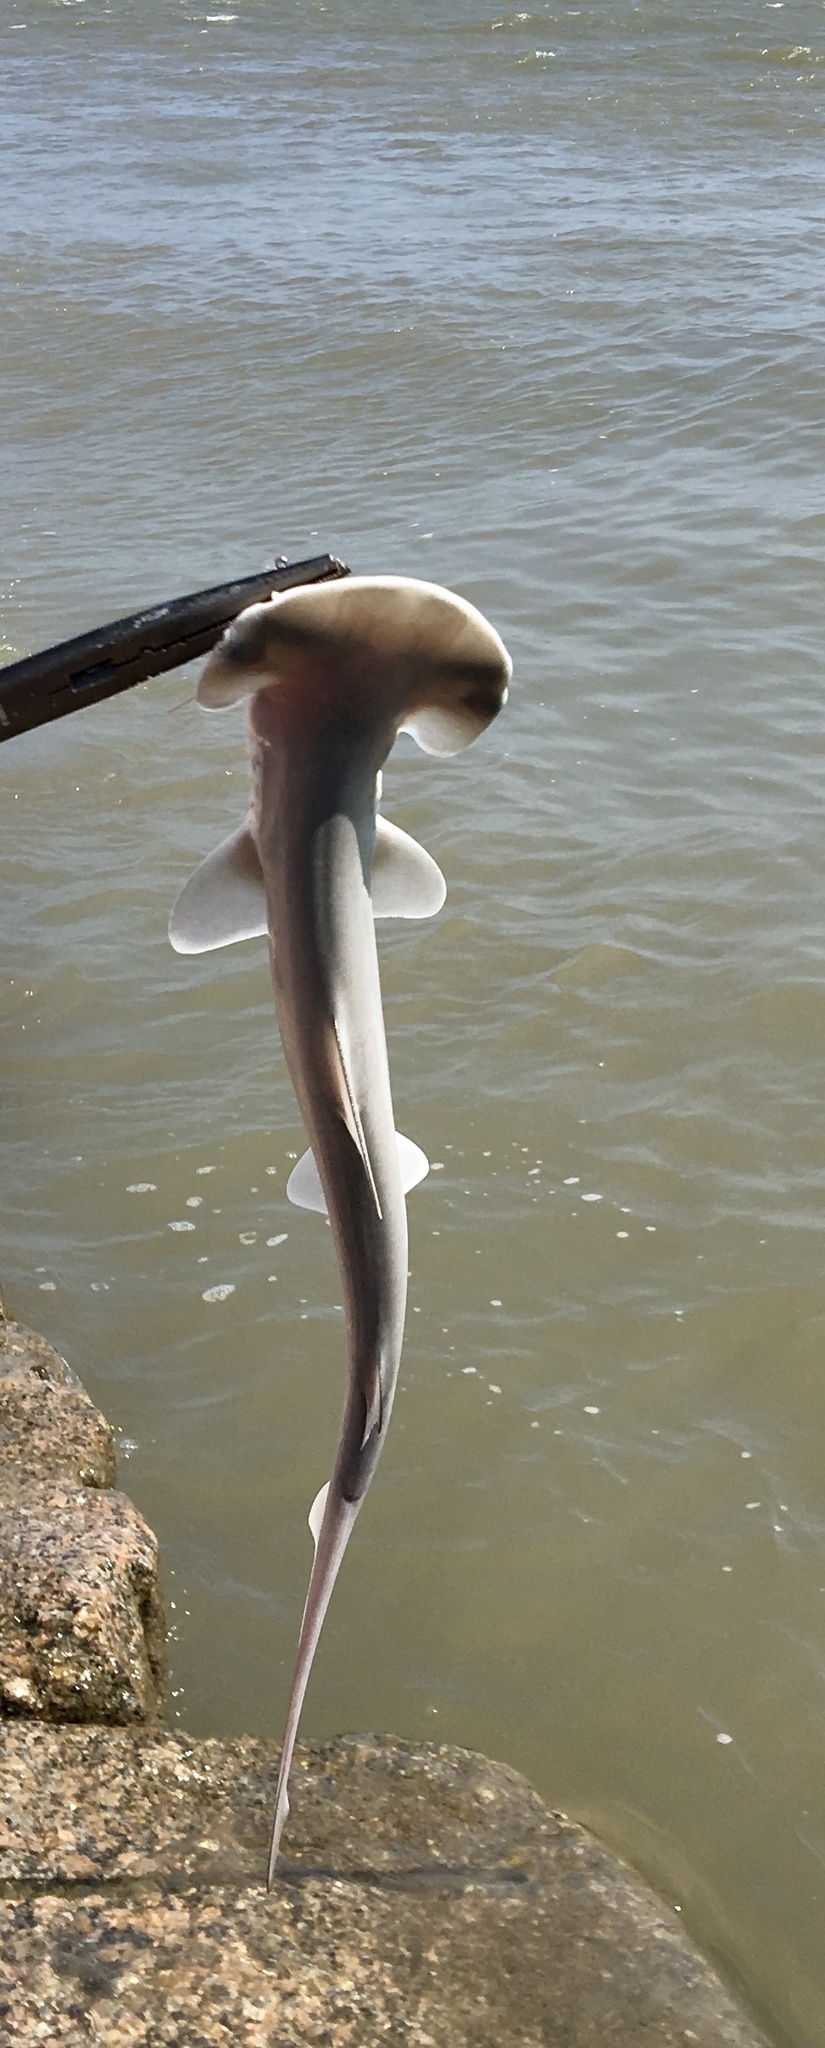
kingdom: Animalia
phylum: Chordata
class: Elasmobranchii
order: Carcharhiniformes
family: Sphyrnidae
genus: Sphyrna
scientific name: Sphyrna tiburo
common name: Bonnethead
